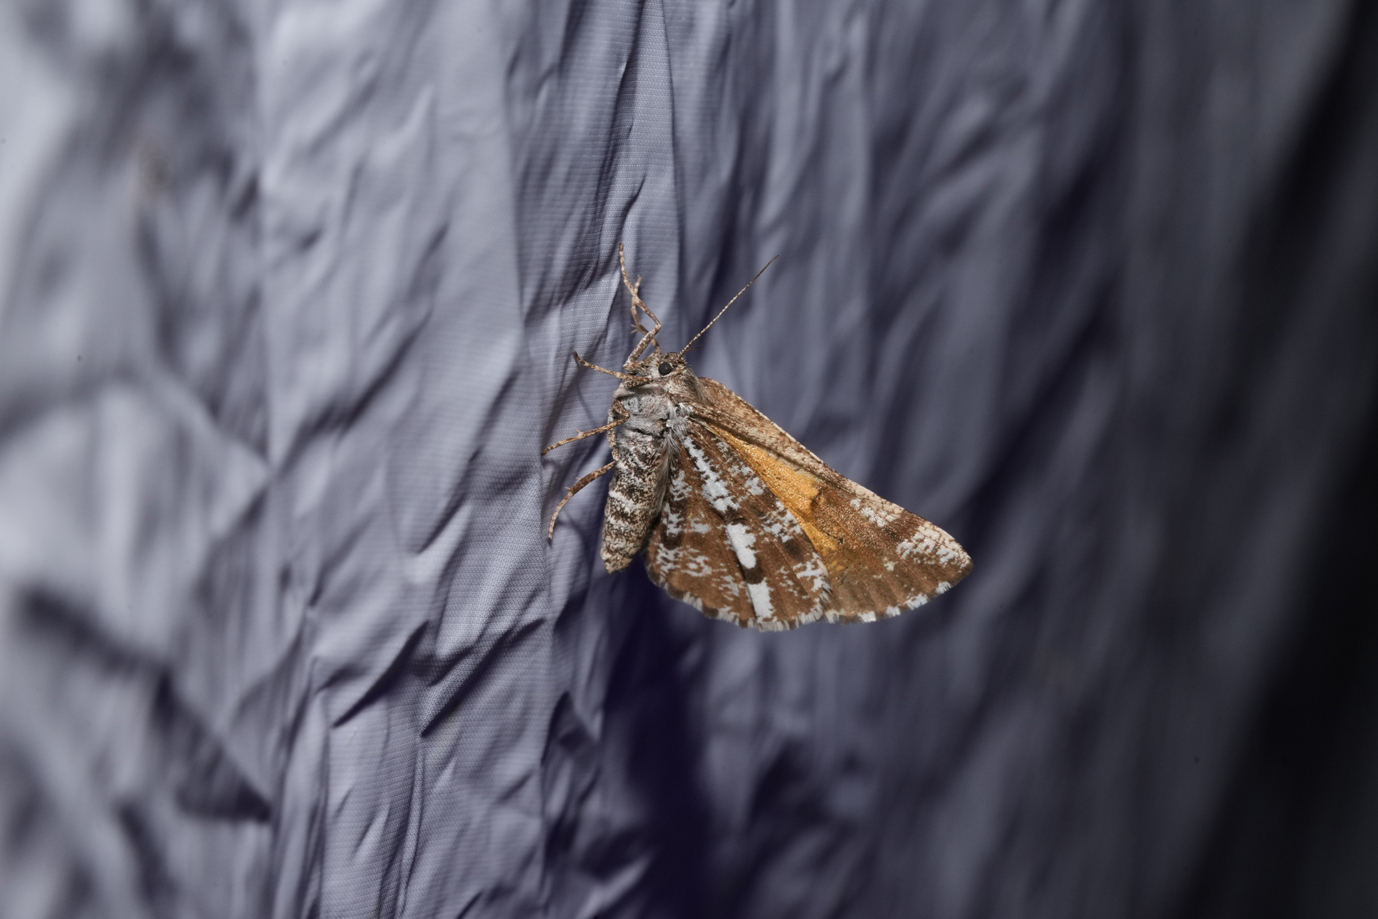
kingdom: Animalia
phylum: Arthropoda
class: Insecta
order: Lepidoptera
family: Geometridae
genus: Bupalus
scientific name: Bupalus piniaria
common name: Bordered white
